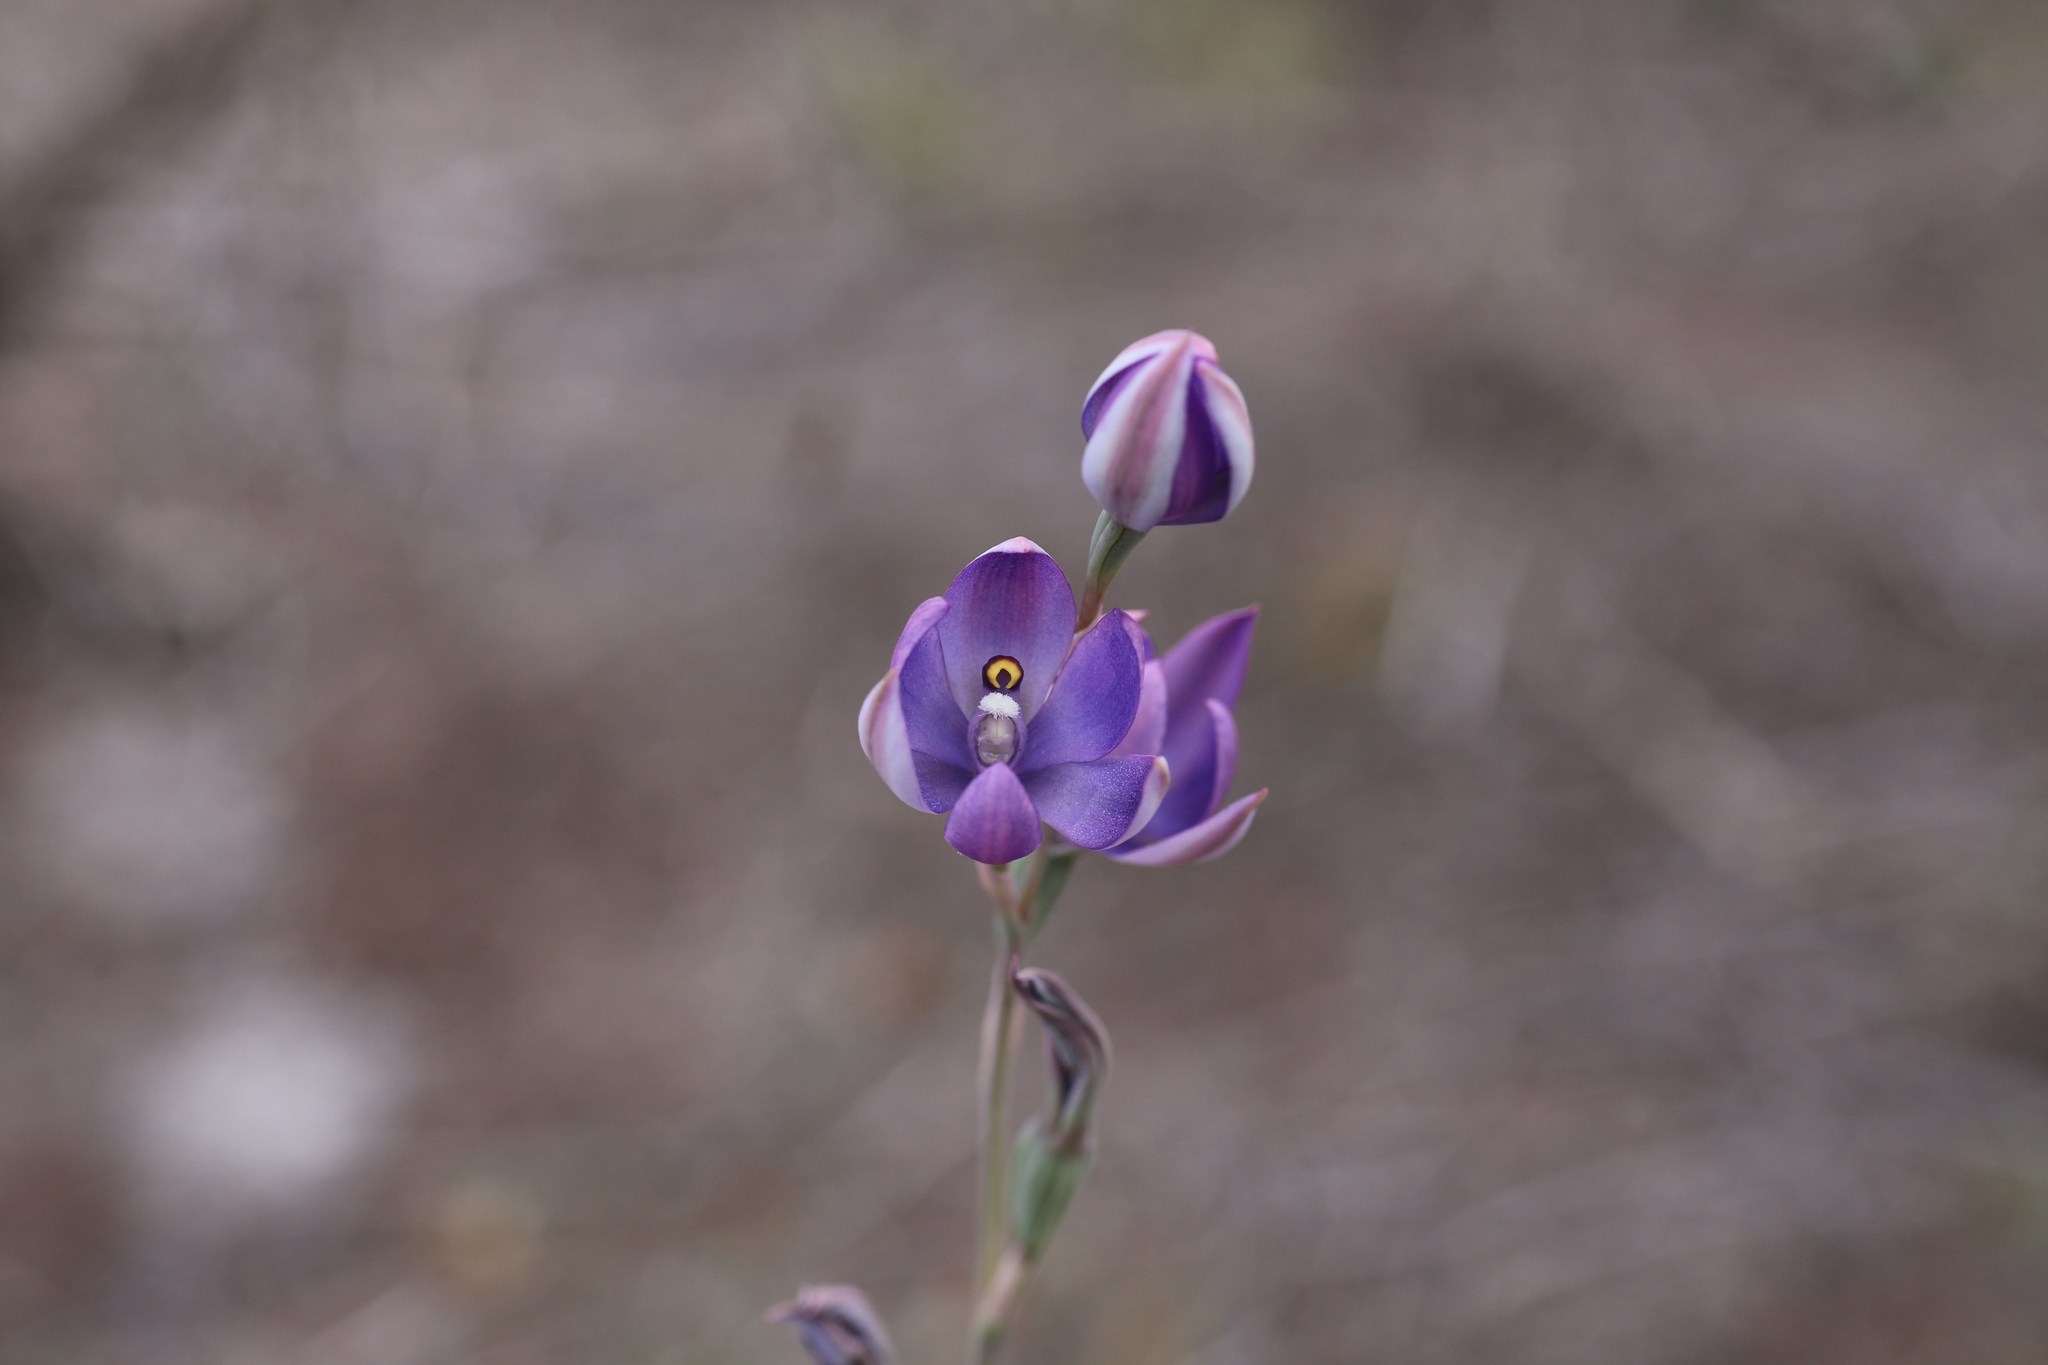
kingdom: Plantae
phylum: Tracheophyta
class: Liliopsida
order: Asparagales
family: Orchidaceae
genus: Thelymitra
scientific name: Thelymitra graminea
